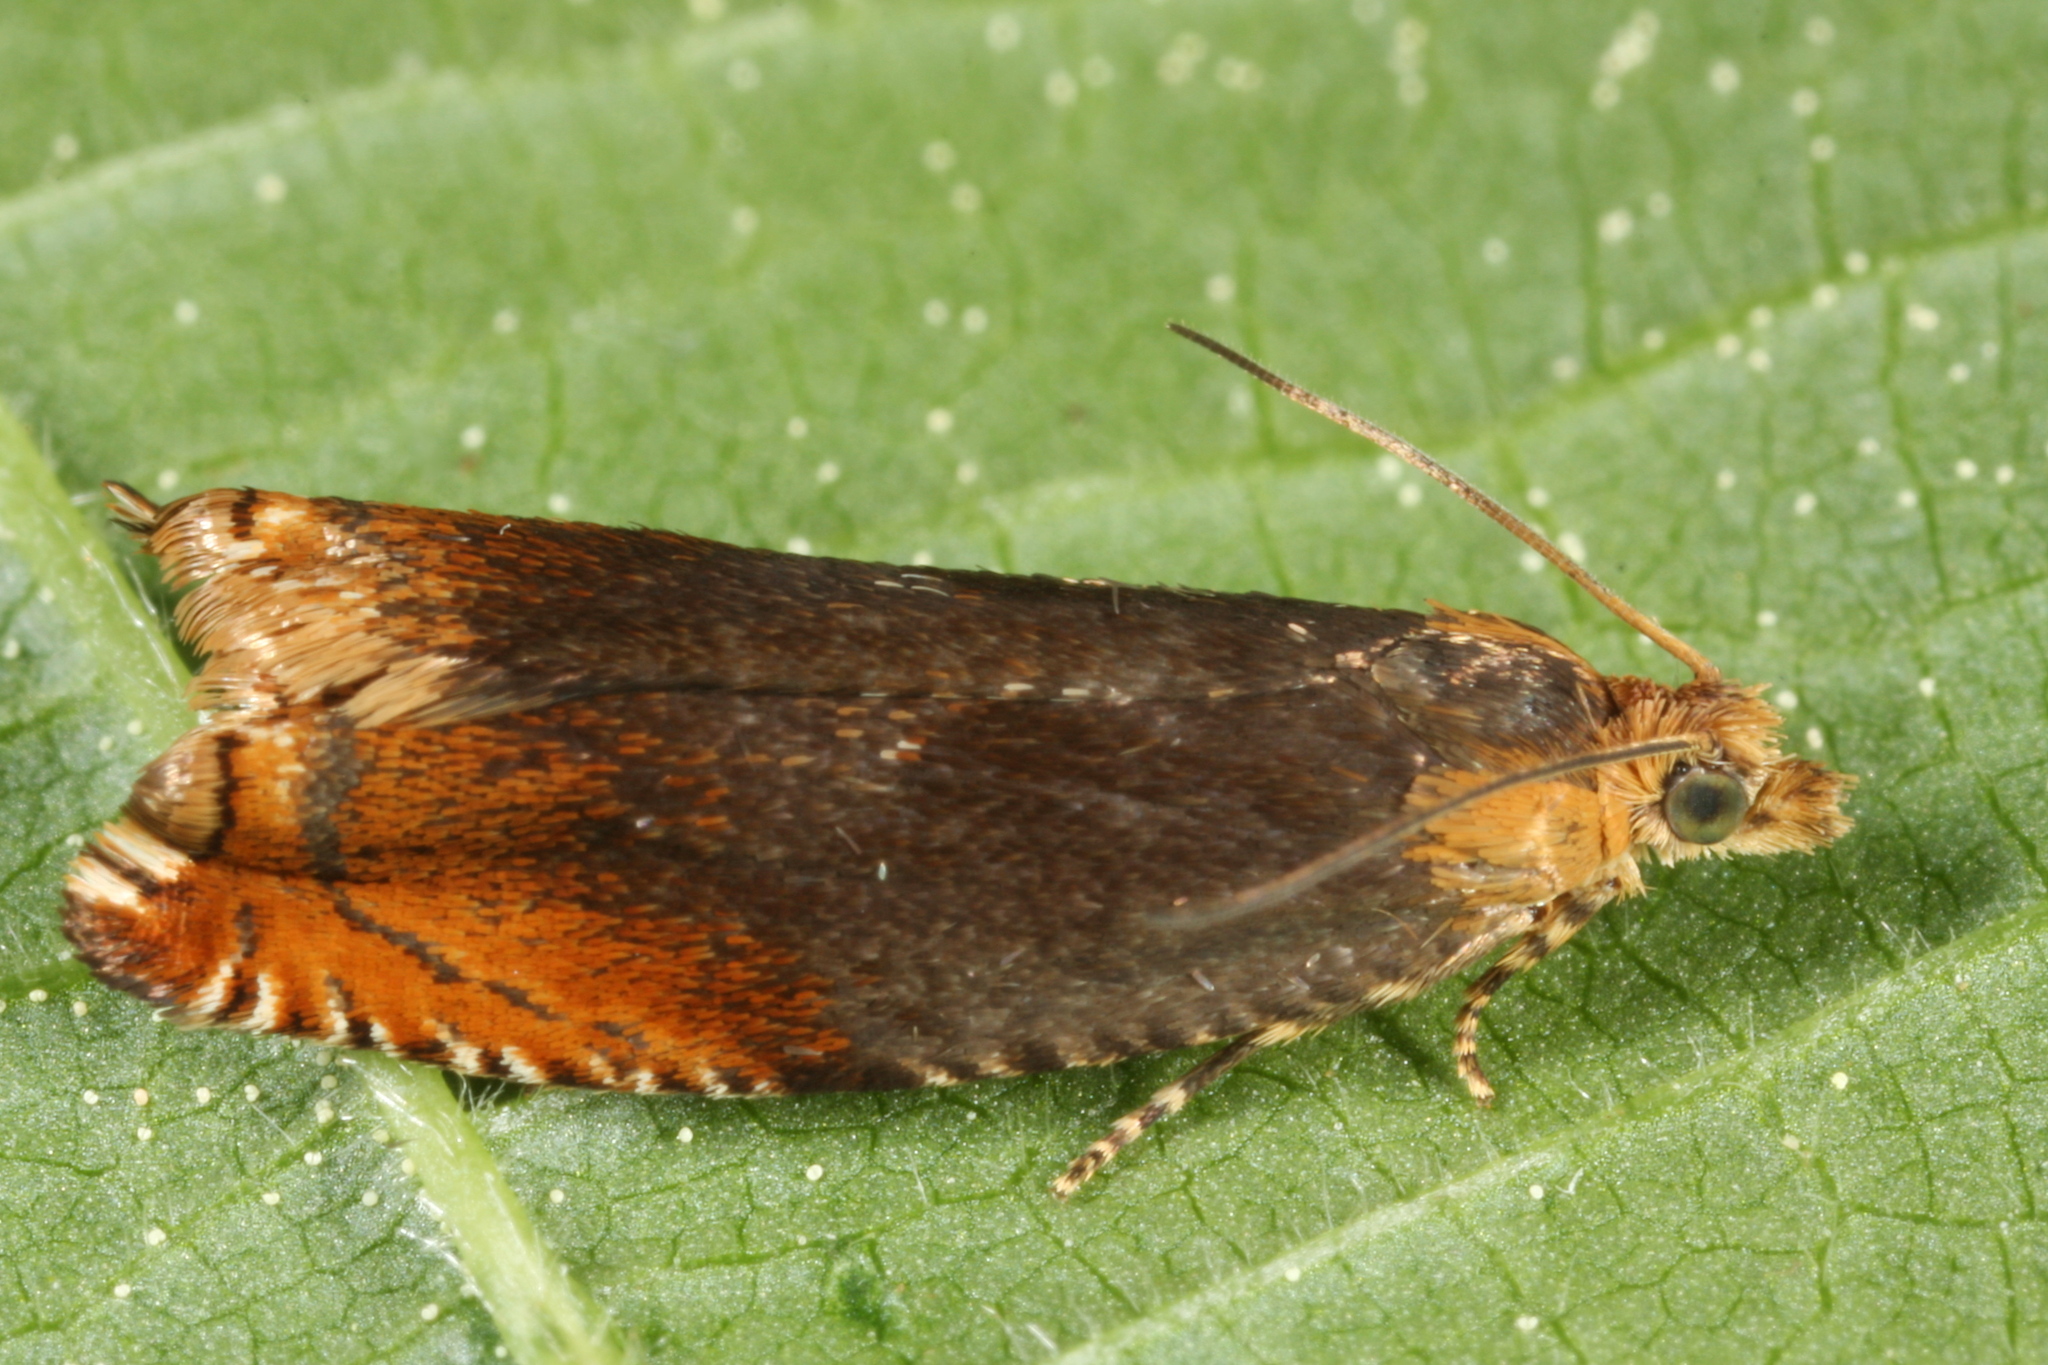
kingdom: Animalia
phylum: Arthropoda
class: Insecta
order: Lepidoptera
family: Tortricidae
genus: Ancylis
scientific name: Ancylis upupana
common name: Dark roller
